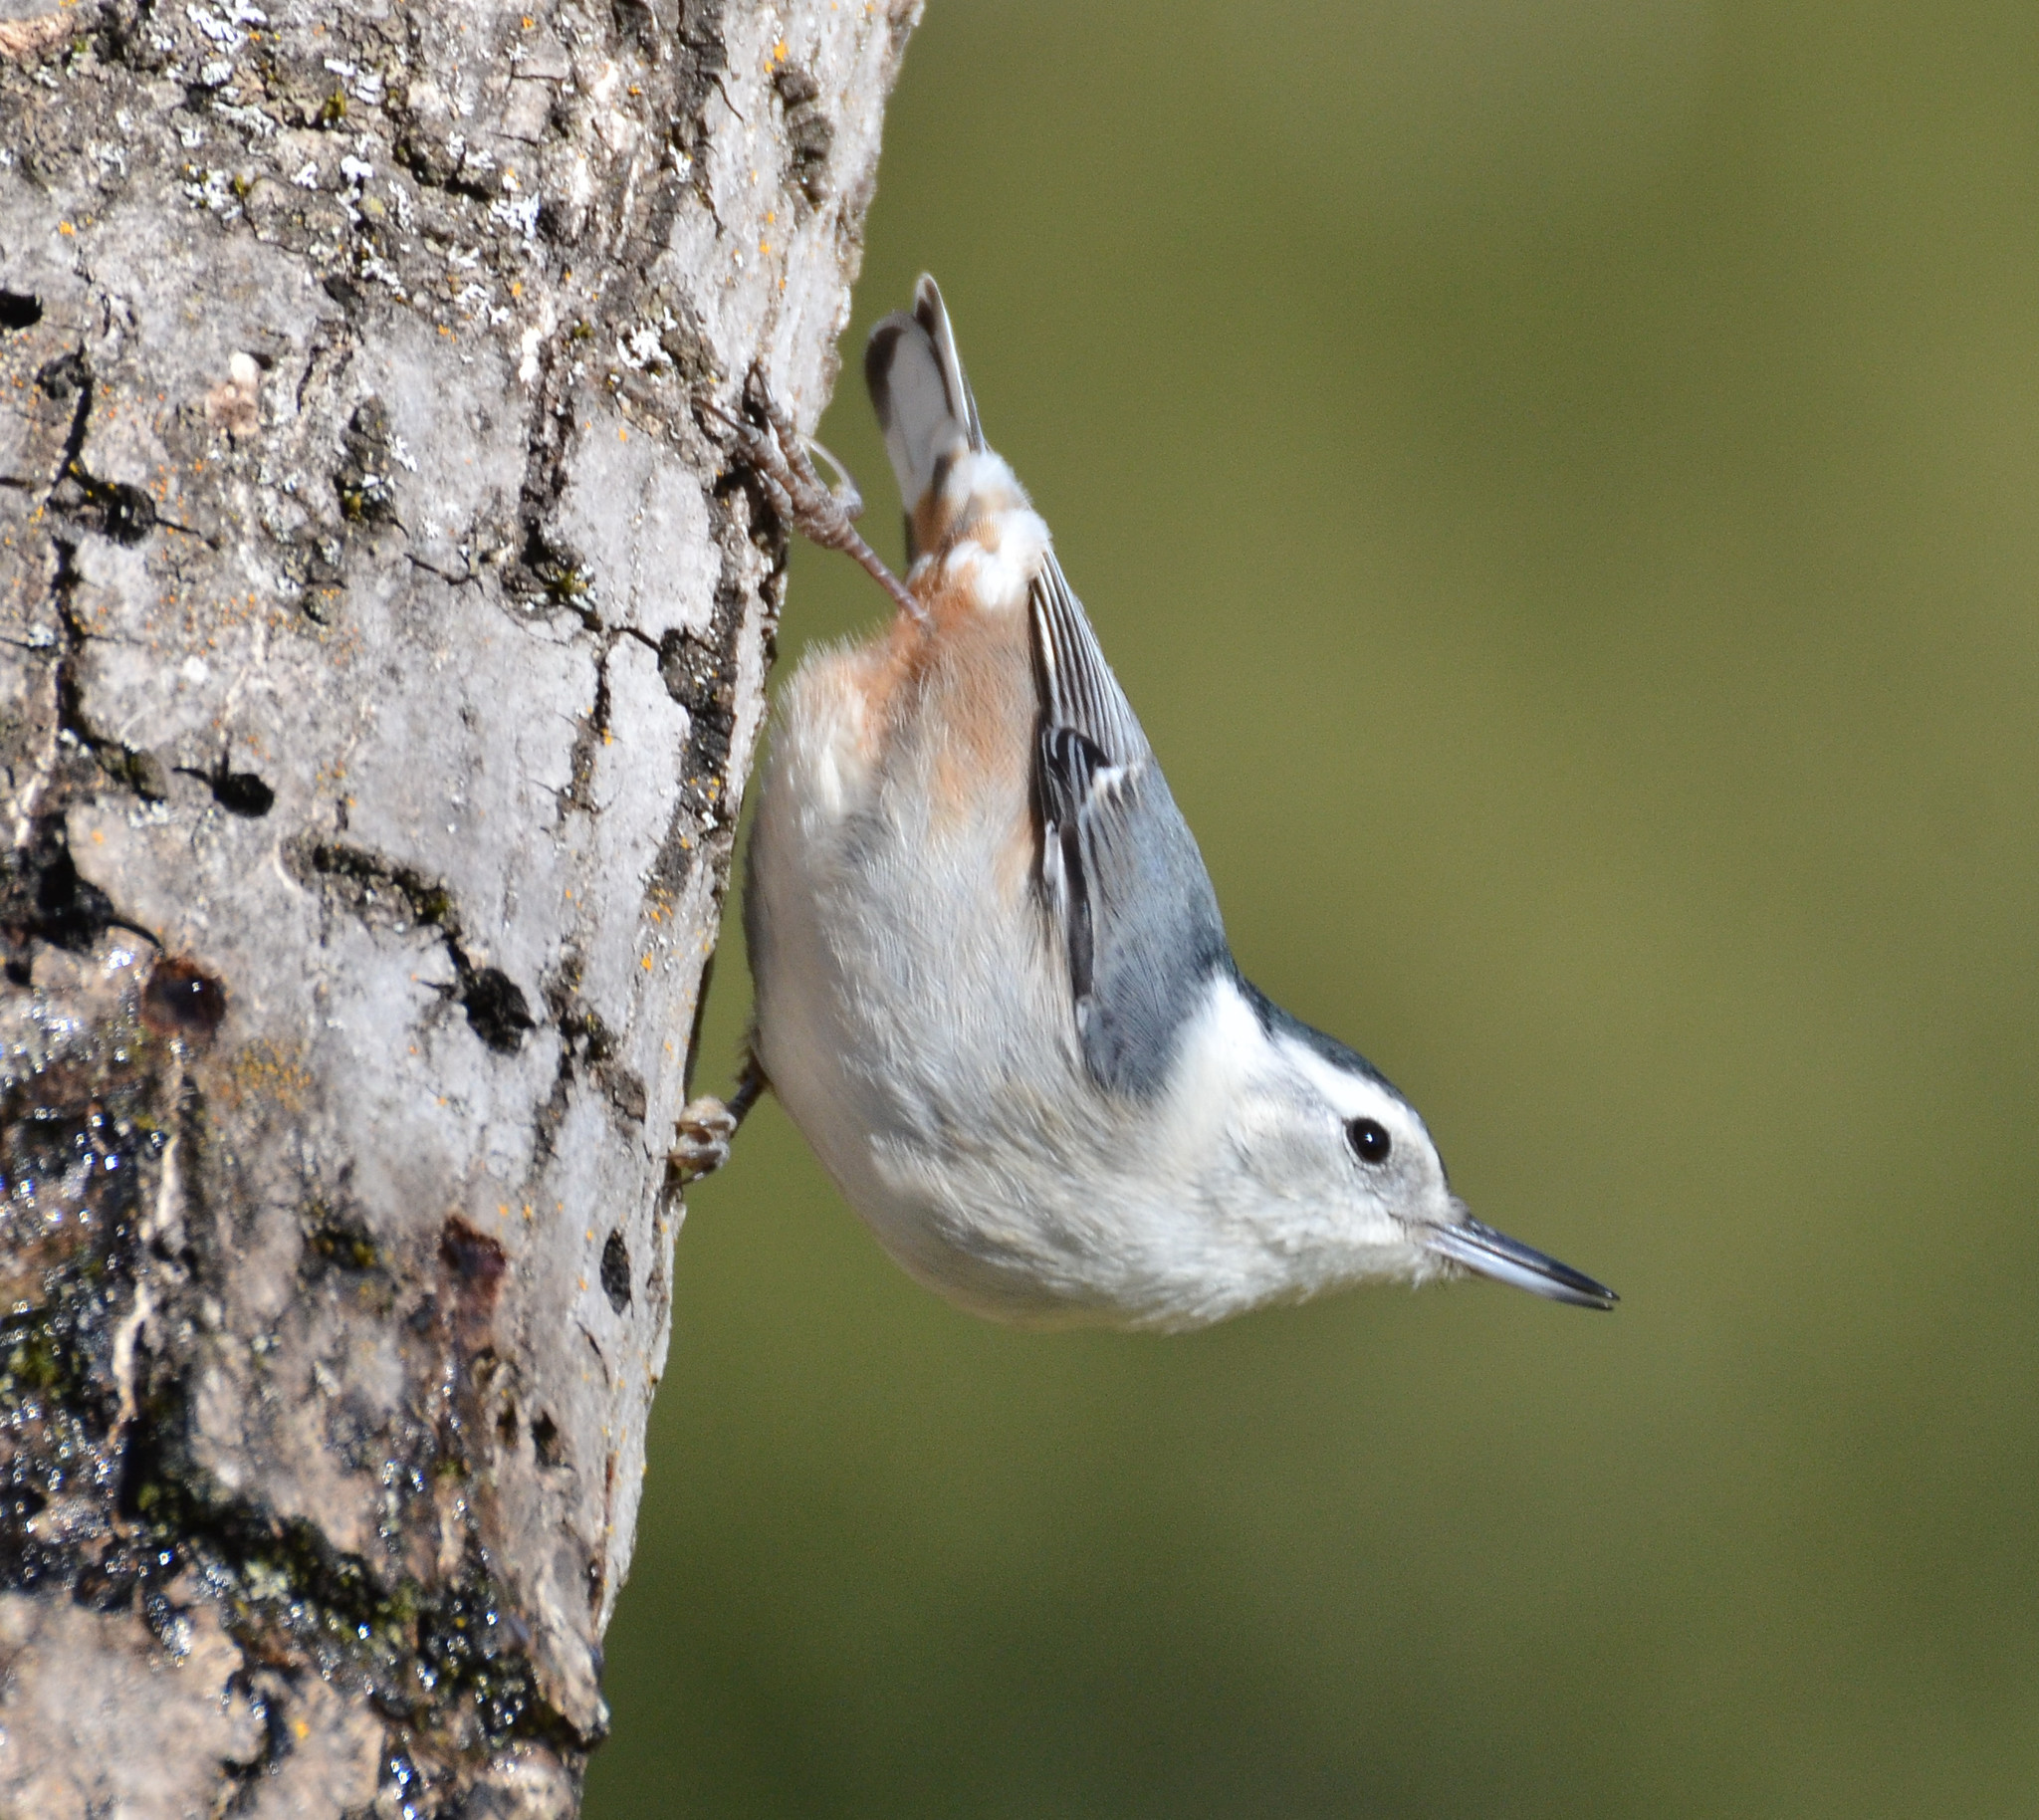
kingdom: Animalia
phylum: Chordata
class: Aves
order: Passeriformes
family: Sittidae
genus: Sitta
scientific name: Sitta carolinensis
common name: White-breasted nuthatch
